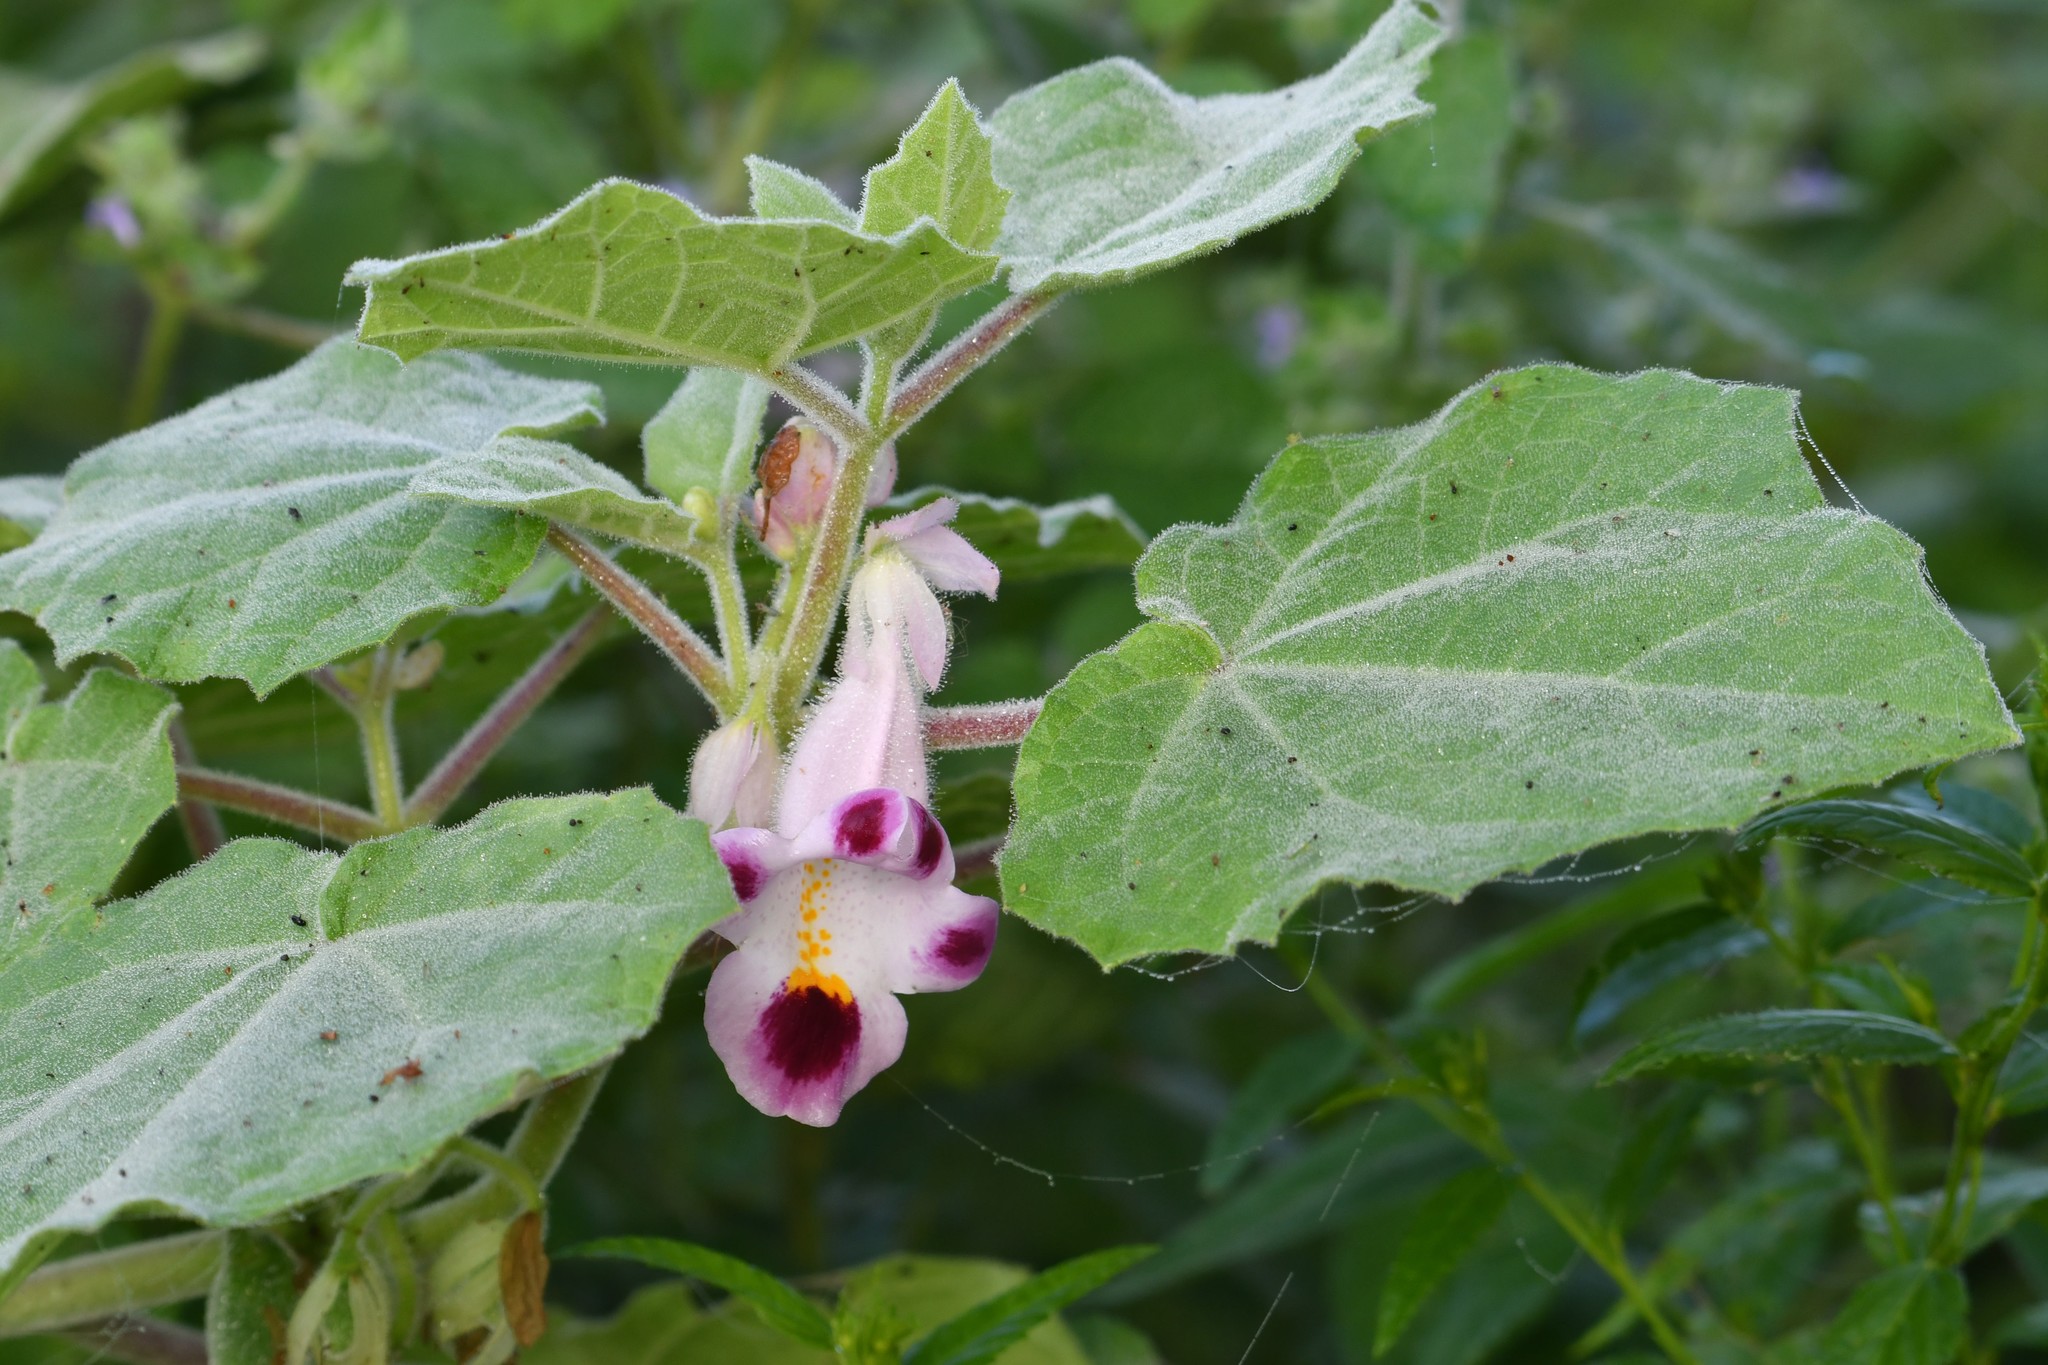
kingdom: Plantae
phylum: Tracheophyta
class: Magnoliopsida
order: Lamiales
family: Martyniaceae
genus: Martynia
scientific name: Martynia annua
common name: Tiger's-claw
